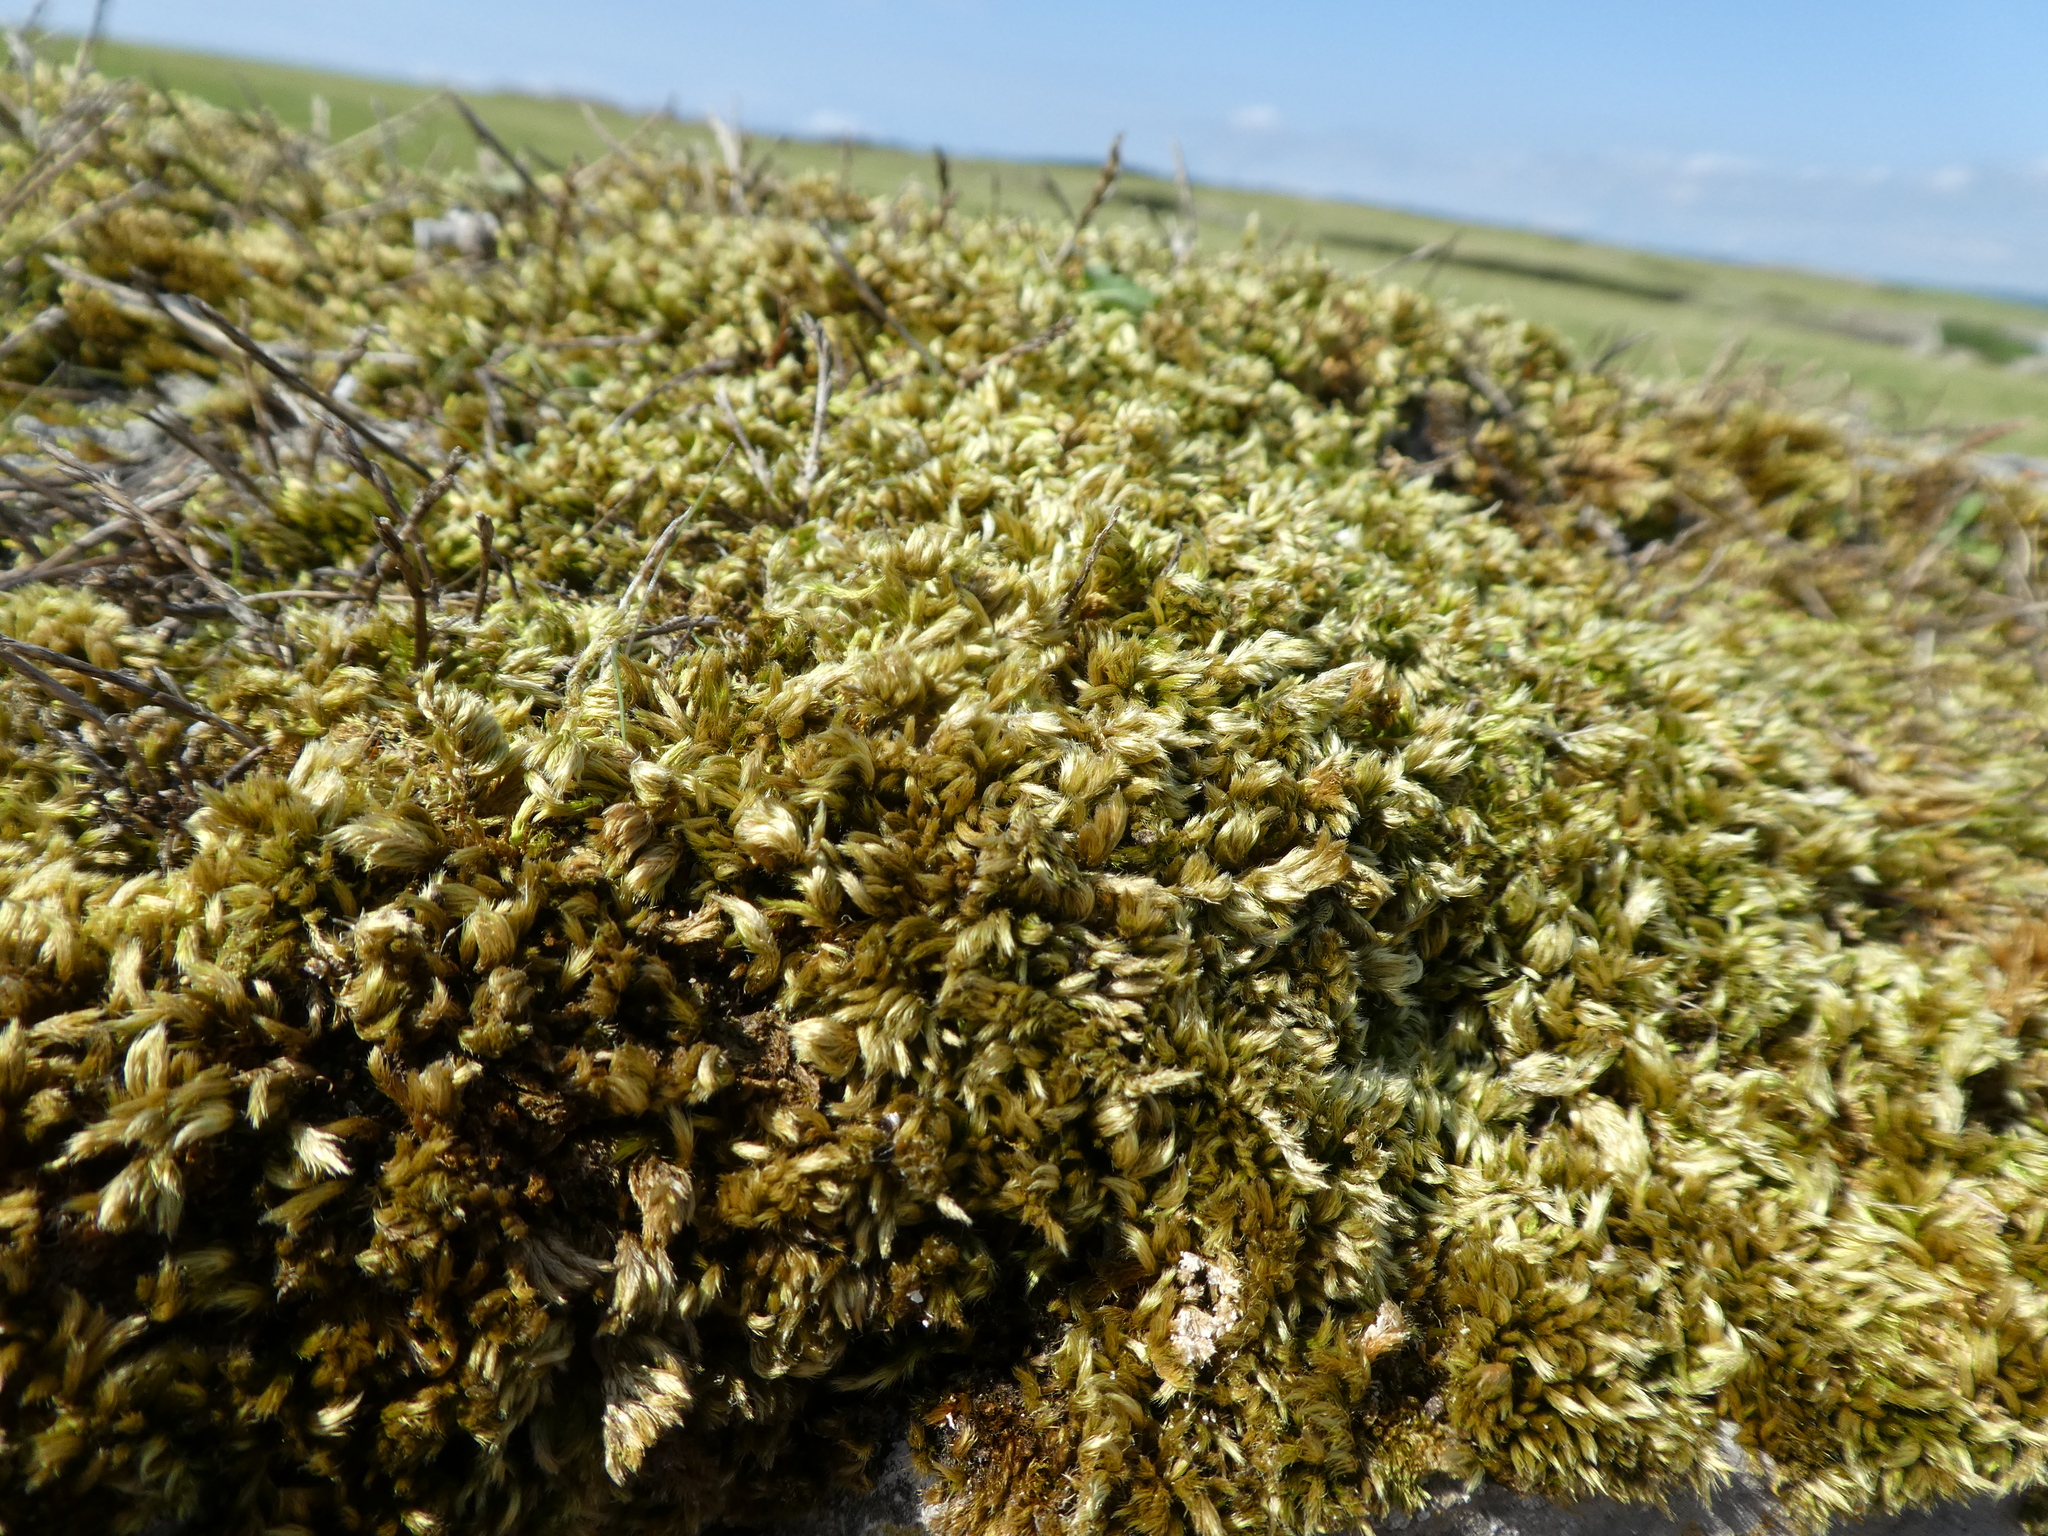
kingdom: Plantae
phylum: Bryophyta
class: Bryopsida
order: Hypnales
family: Brachytheciaceae
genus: Homalothecium
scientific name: Homalothecium sericeum
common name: Silky wall feather-moss
